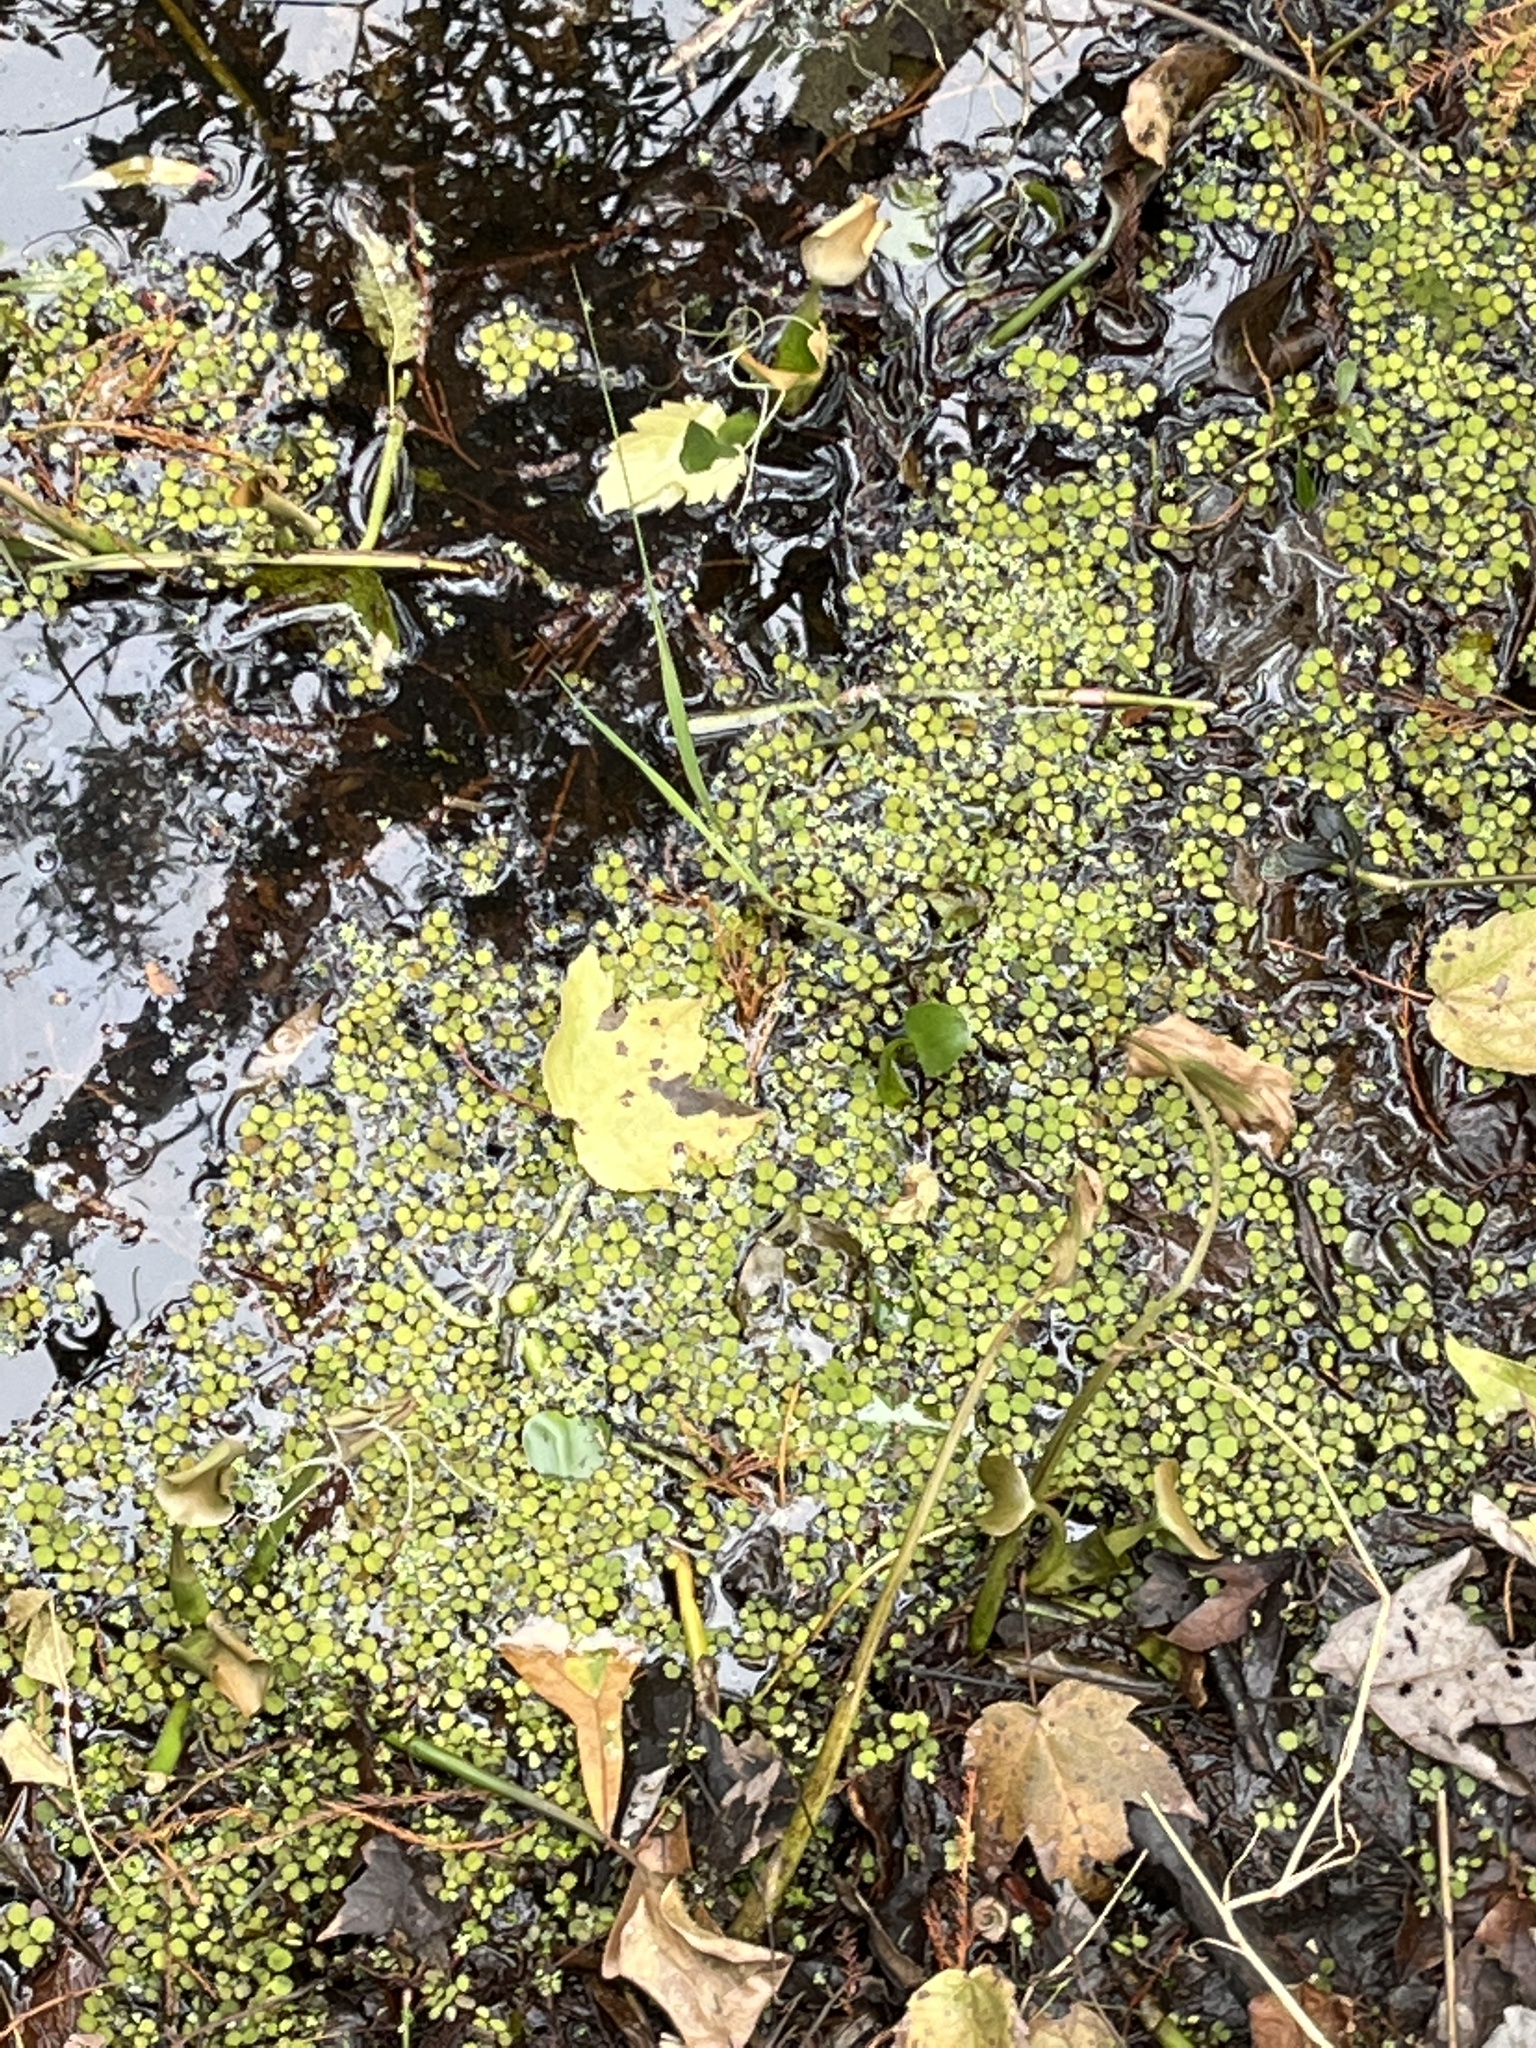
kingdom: Plantae
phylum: Tracheophyta
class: Polypodiopsida
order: Salviniales
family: Salviniaceae
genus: Salvinia
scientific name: Salvinia minima
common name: Water spangles
